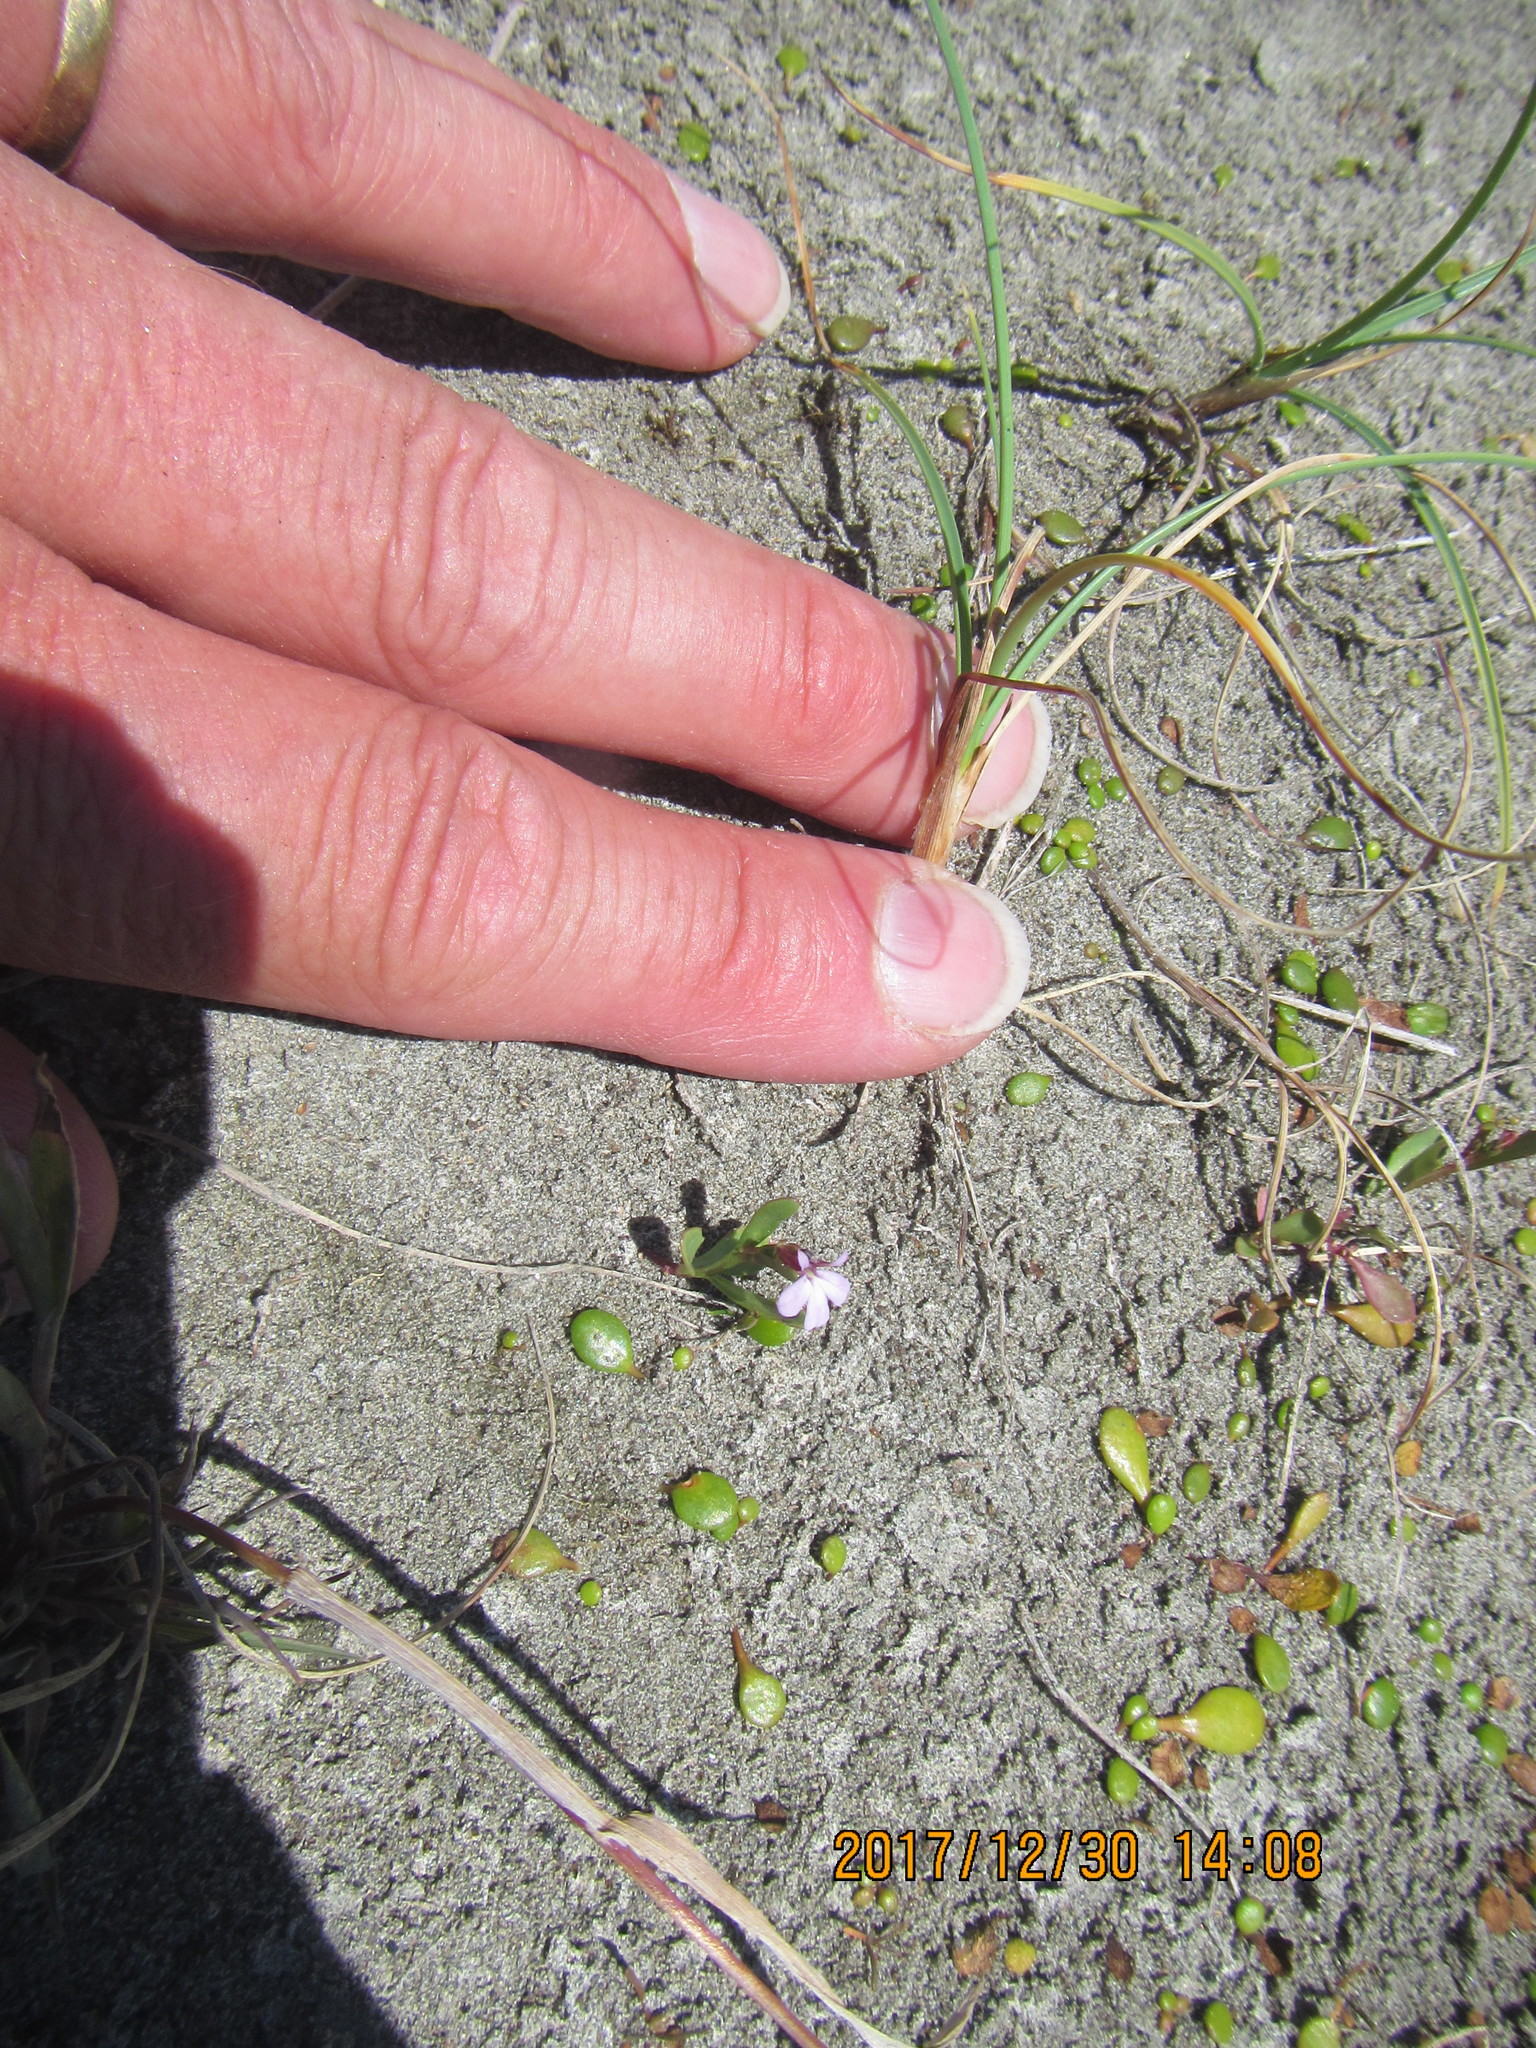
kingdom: Plantae
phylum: Tracheophyta
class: Magnoliopsida
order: Asterales
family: Campanulaceae
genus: Lobelia
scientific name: Lobelia anceps
